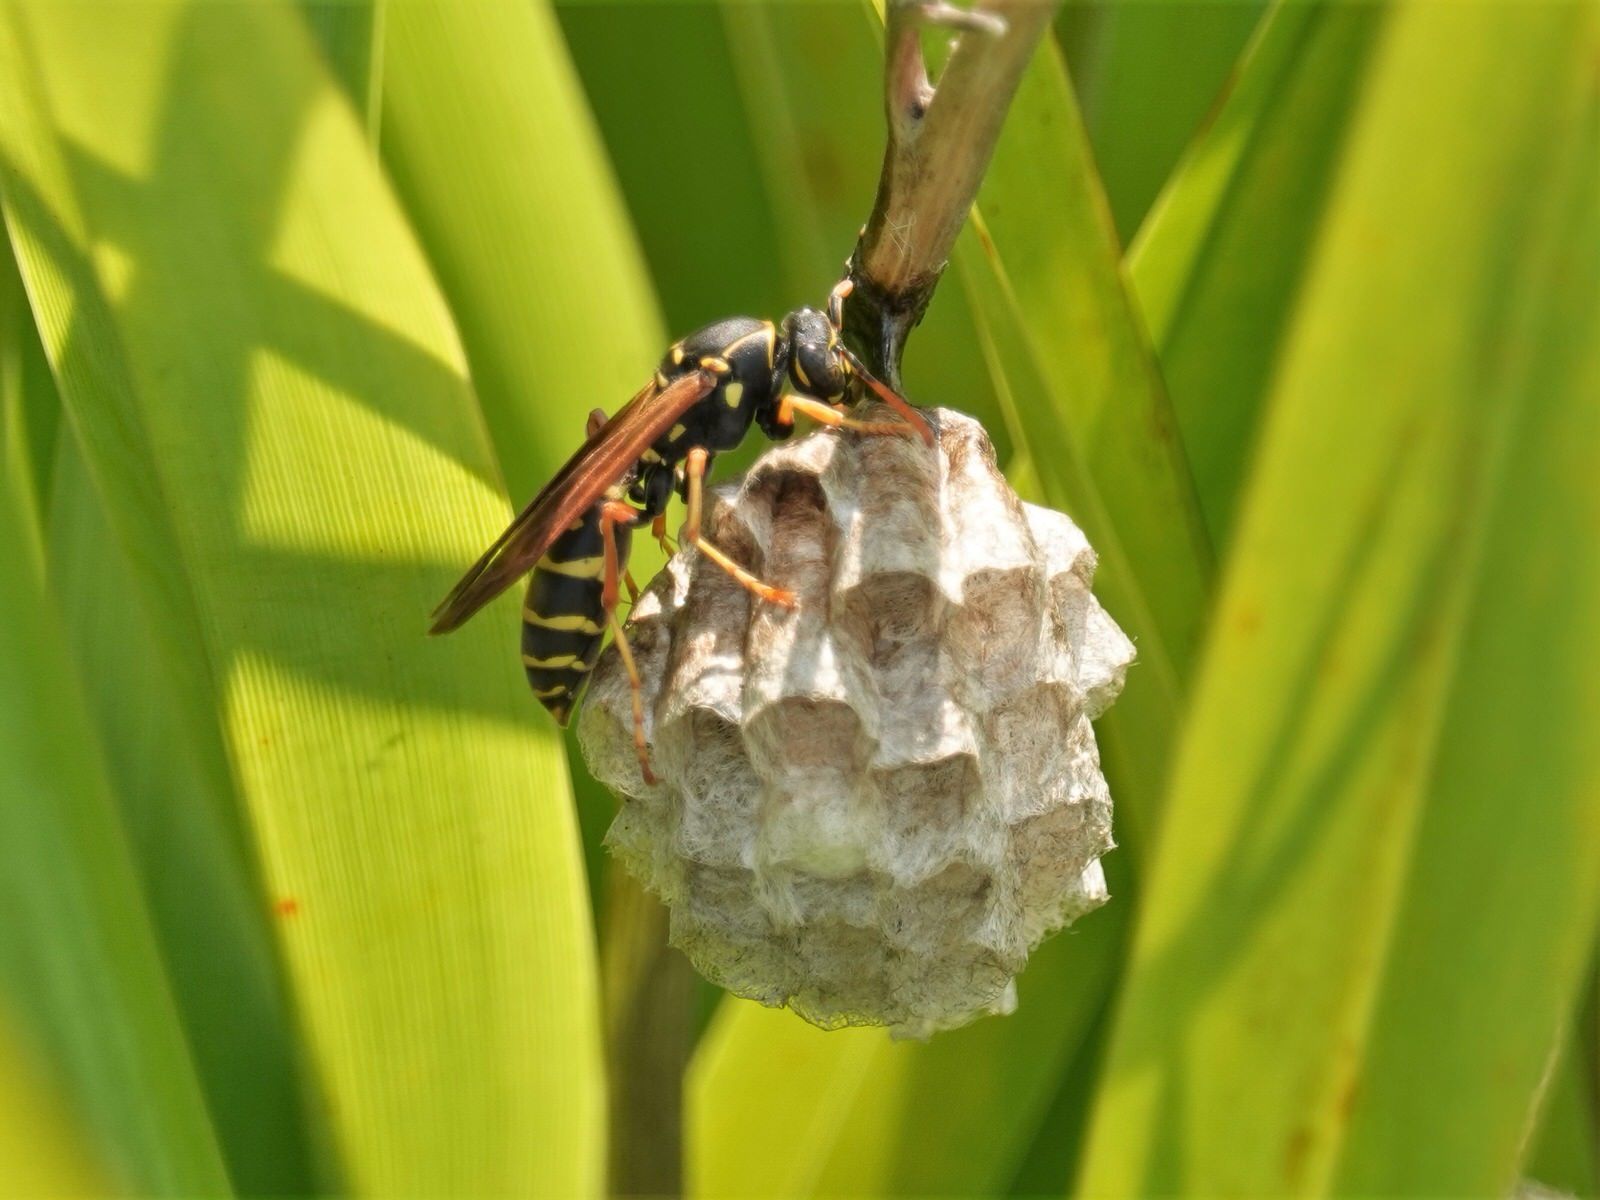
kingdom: Animalia
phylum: Arthropoda
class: Insecta
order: Hymenoptera
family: Eumenidae
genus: Polistes
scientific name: Polistes chinensis
